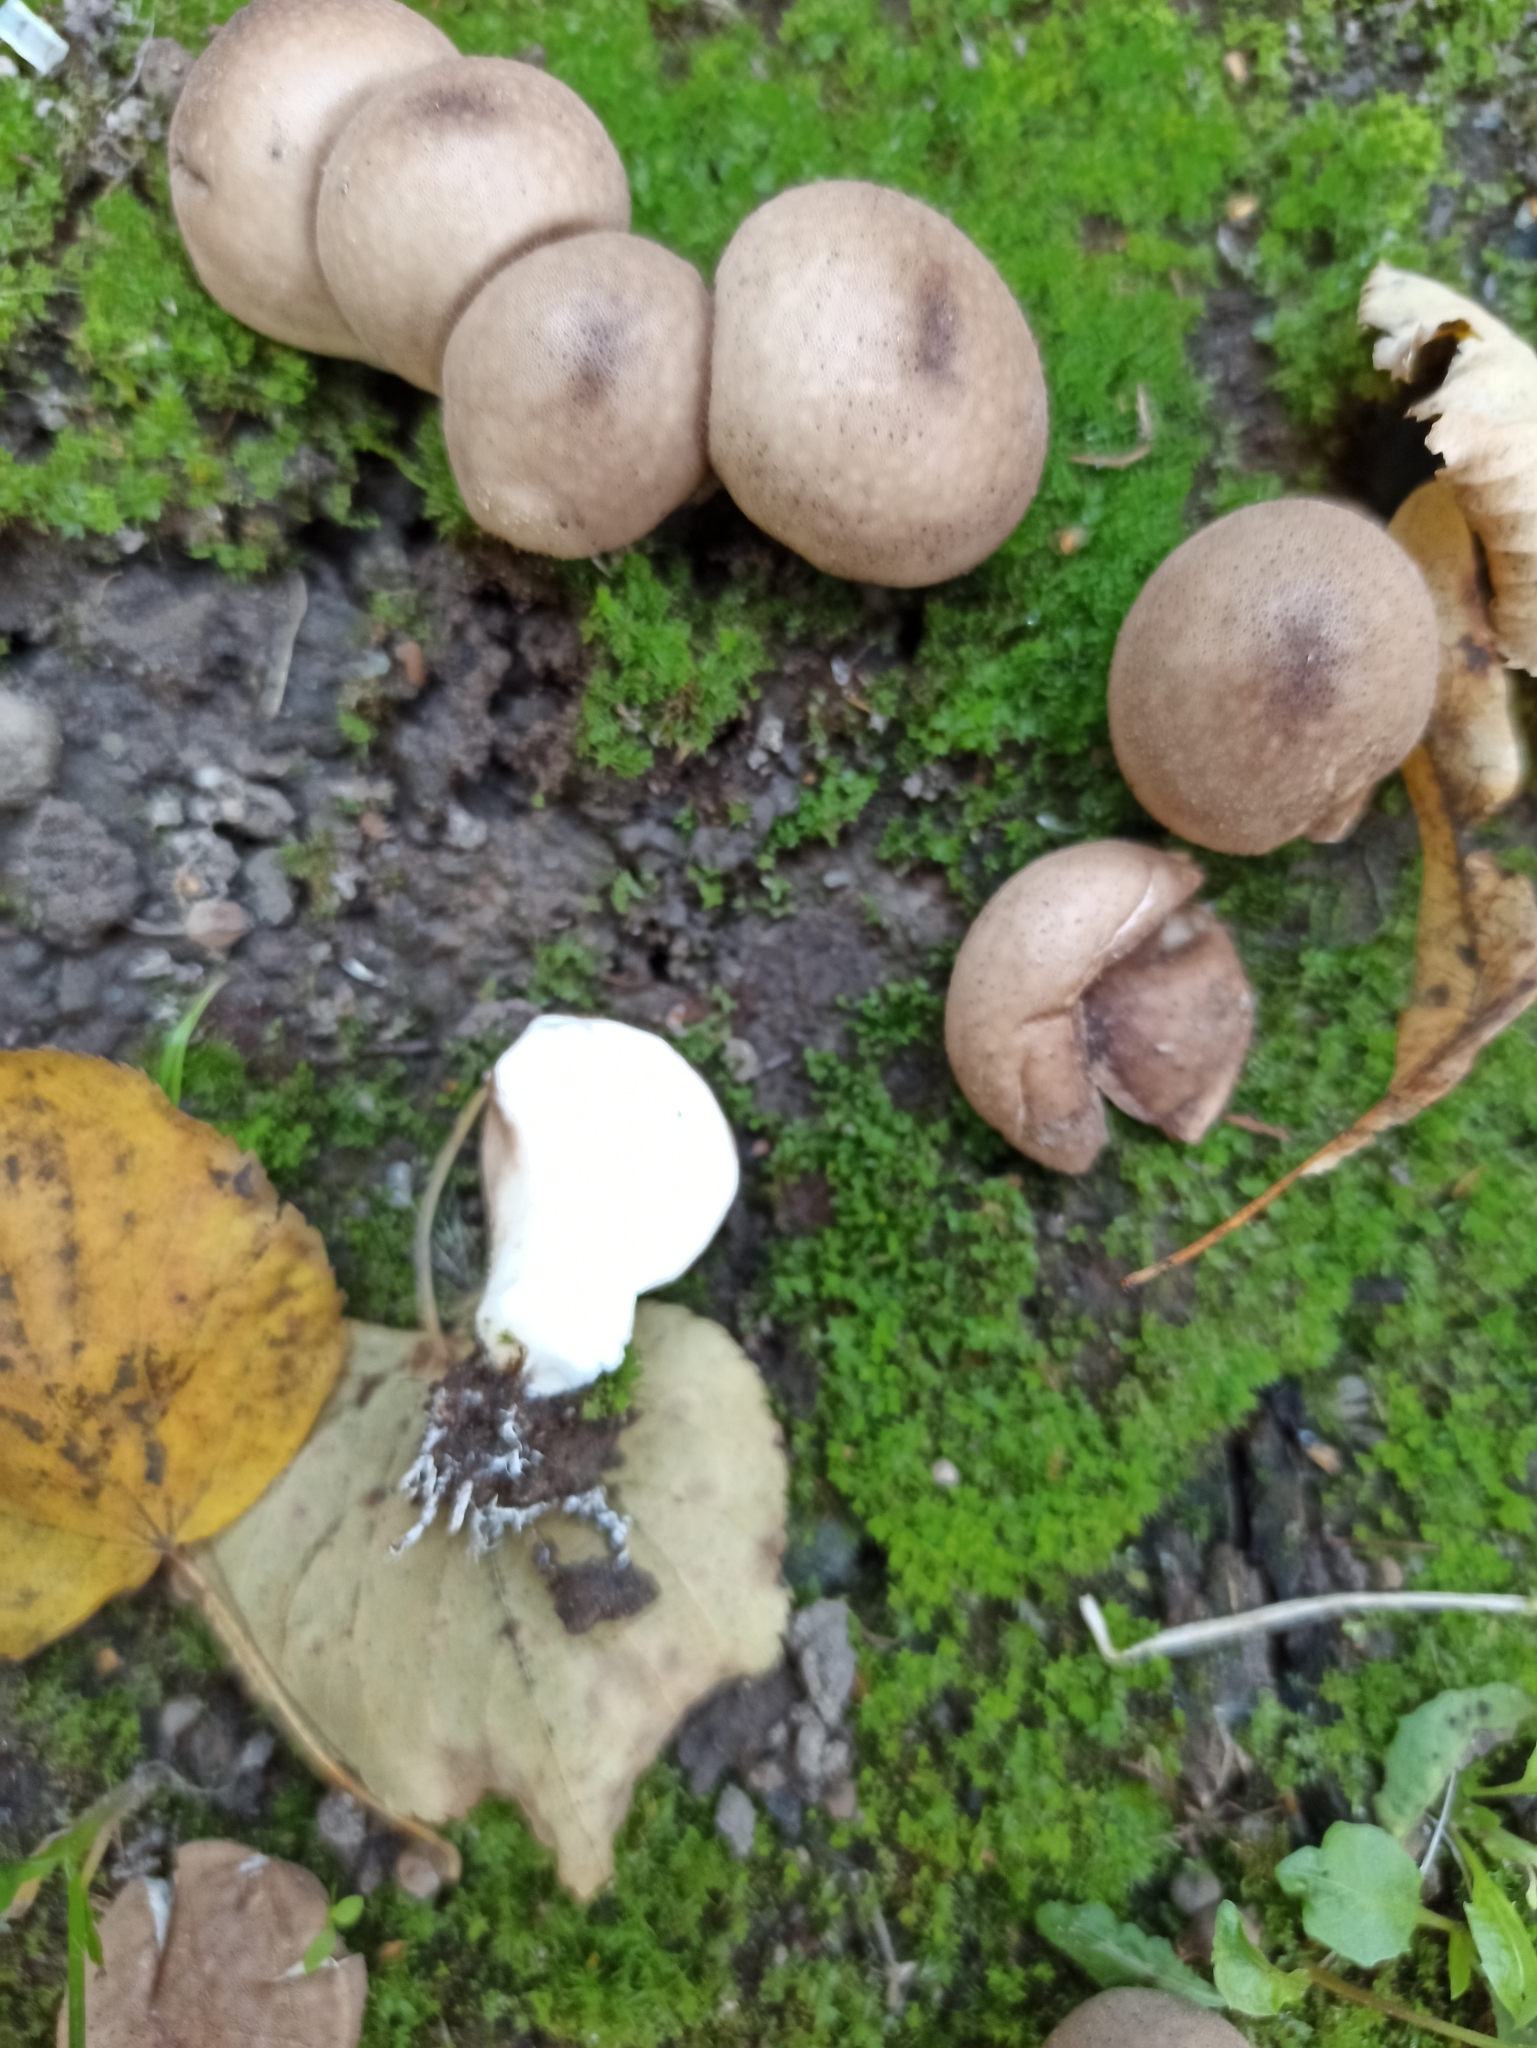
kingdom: Fungi
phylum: Basidiomycota
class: Agaricomycetes
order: Agaricales
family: Lycoperdaceae
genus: Apioperdon
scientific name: Apioperdon pyriforme
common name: Pear-shaped puffball
